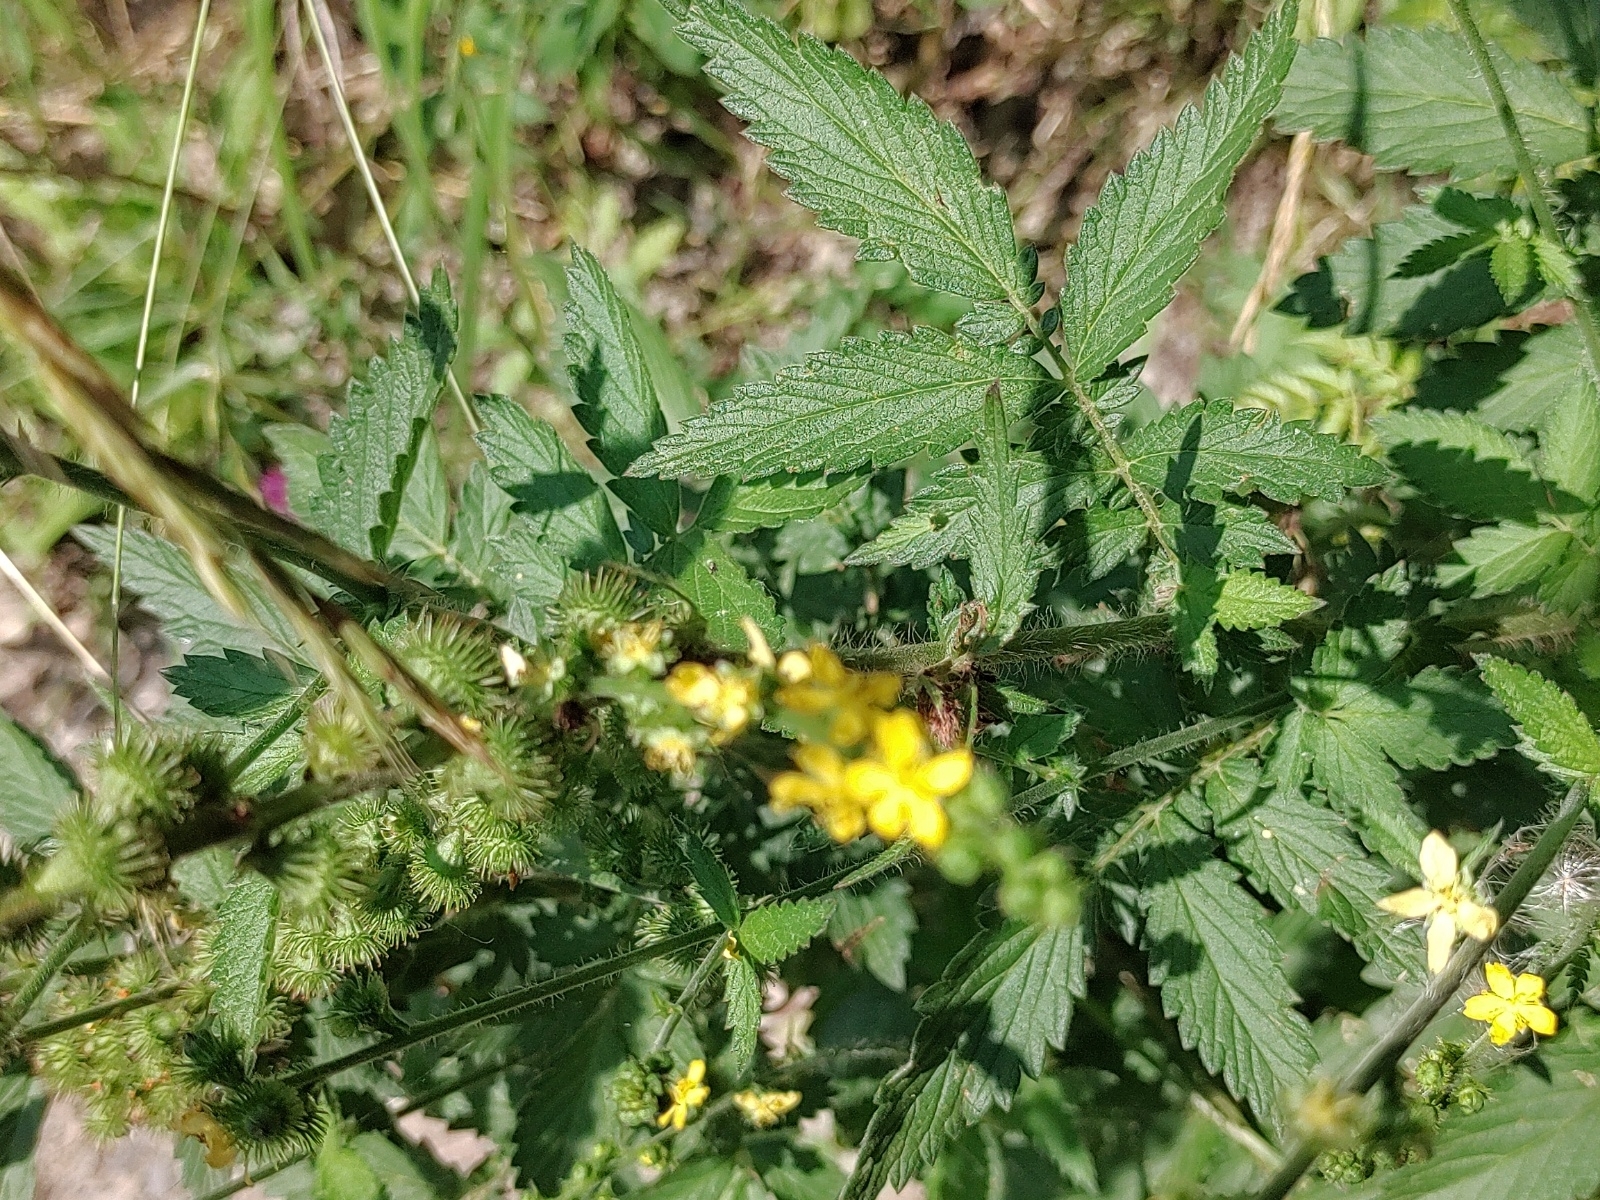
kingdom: Plantae
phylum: Tracheophyta
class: Magnoliopsida
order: Rosales
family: Rosaceae
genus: Agrimonia
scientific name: Agrimonia eupatoria
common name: Agrimony
